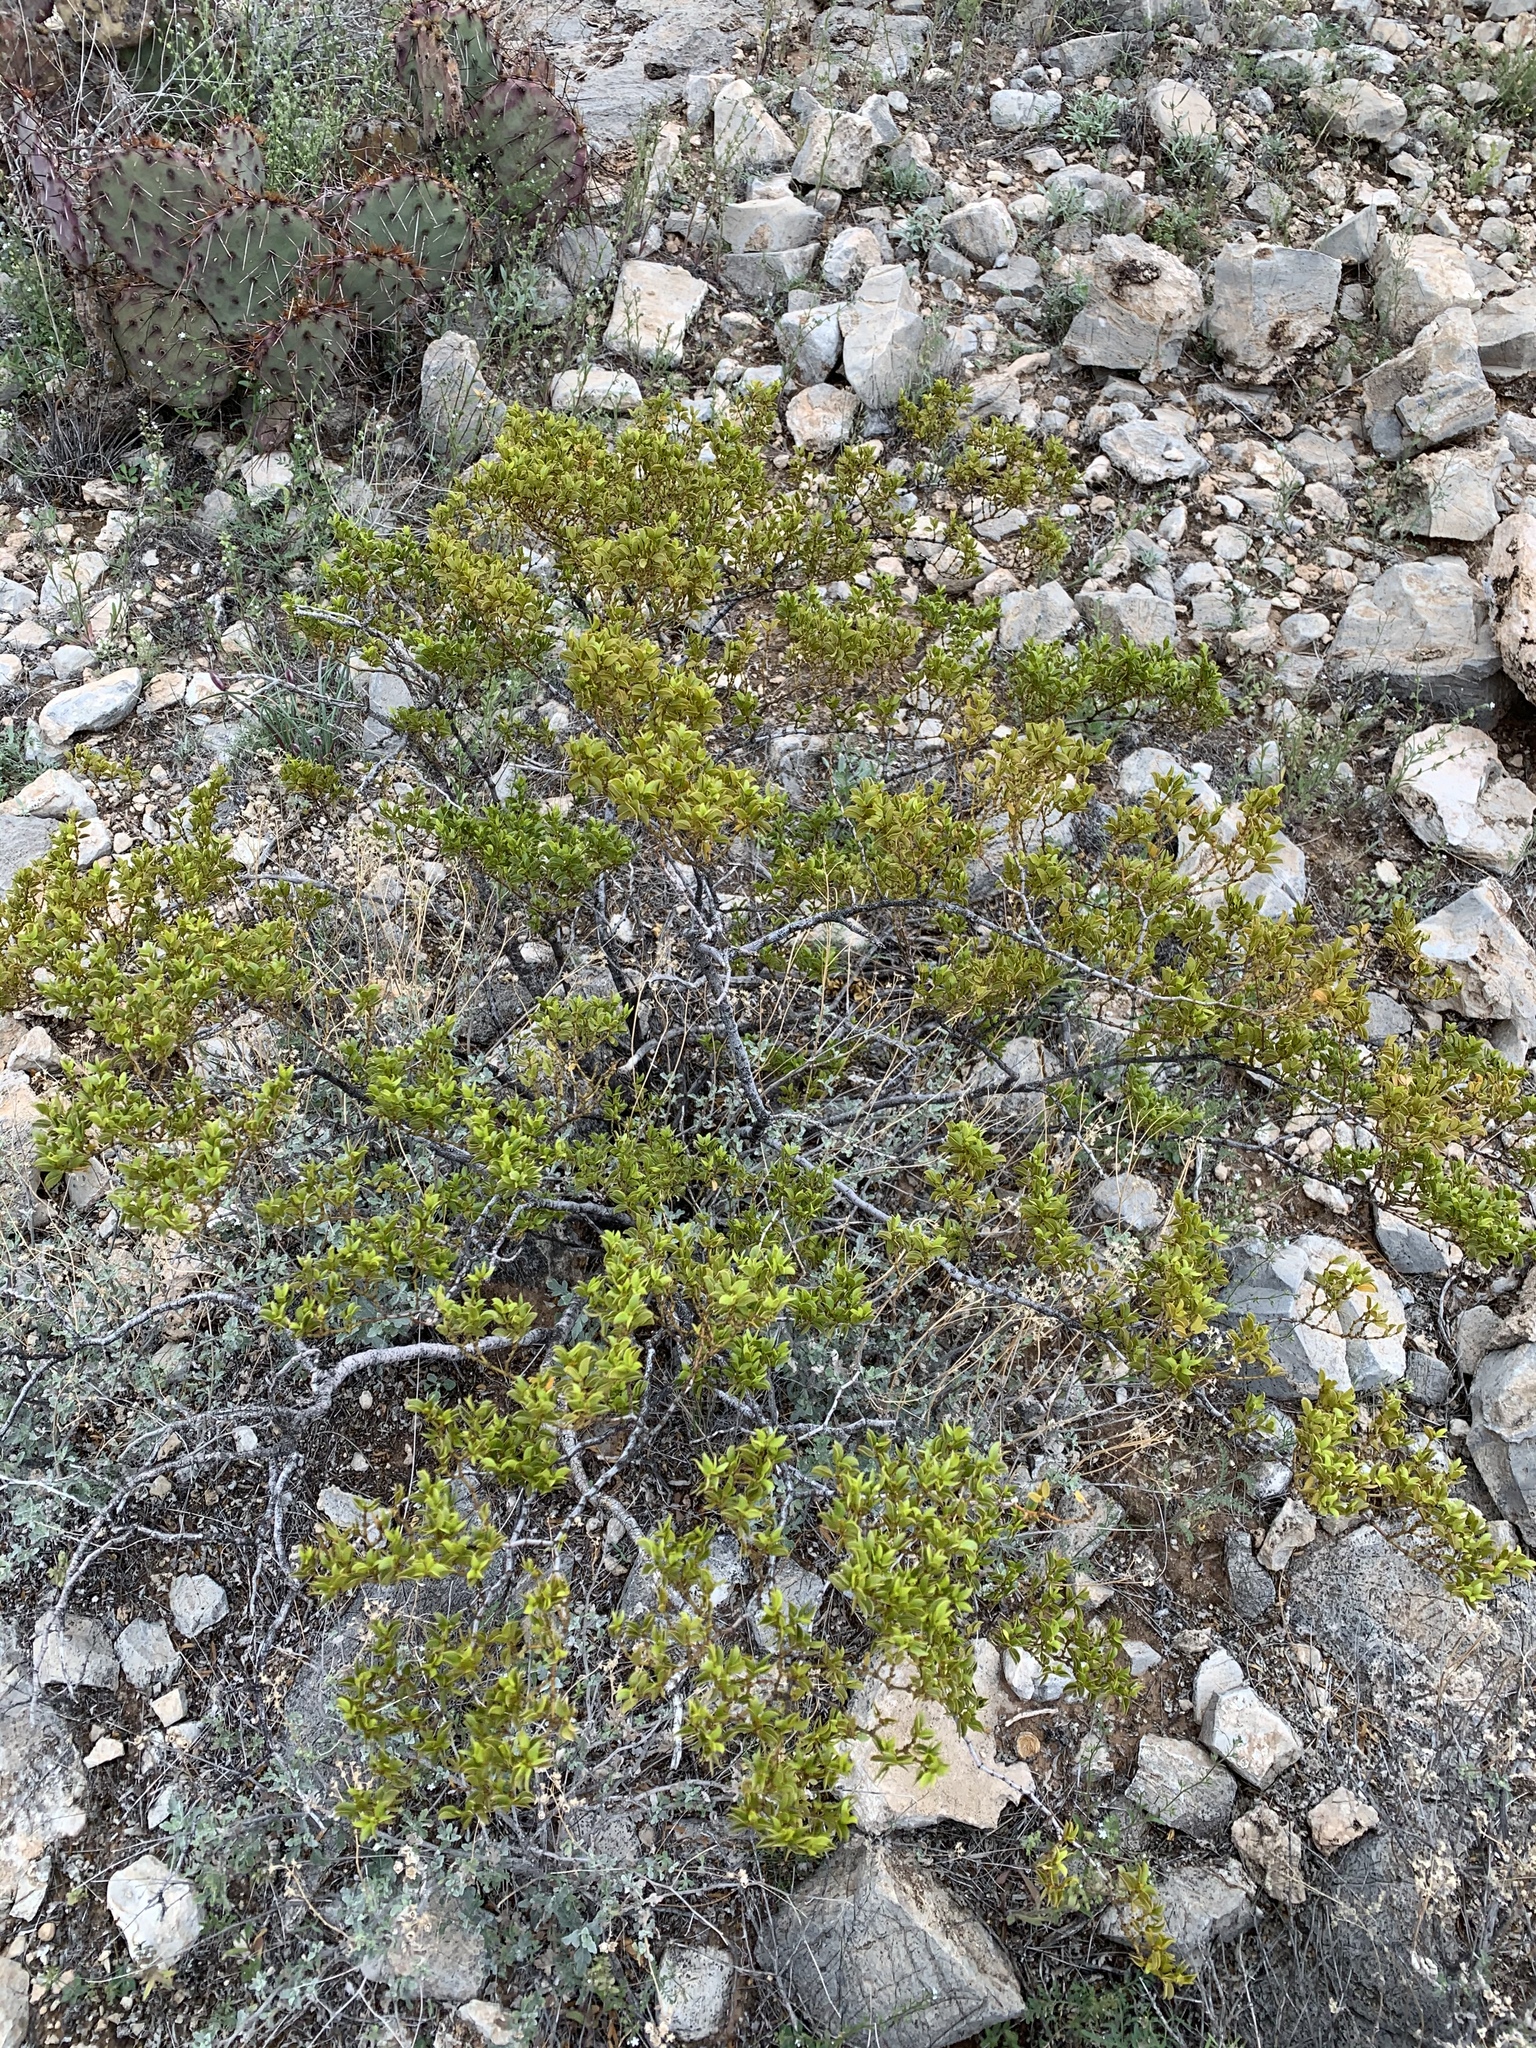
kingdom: Plantae
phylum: Tracheophyta
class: Magnoliopsida
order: Zygophyllales
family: Zygophyllaceae
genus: Larrea
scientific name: Larrea tridentata
